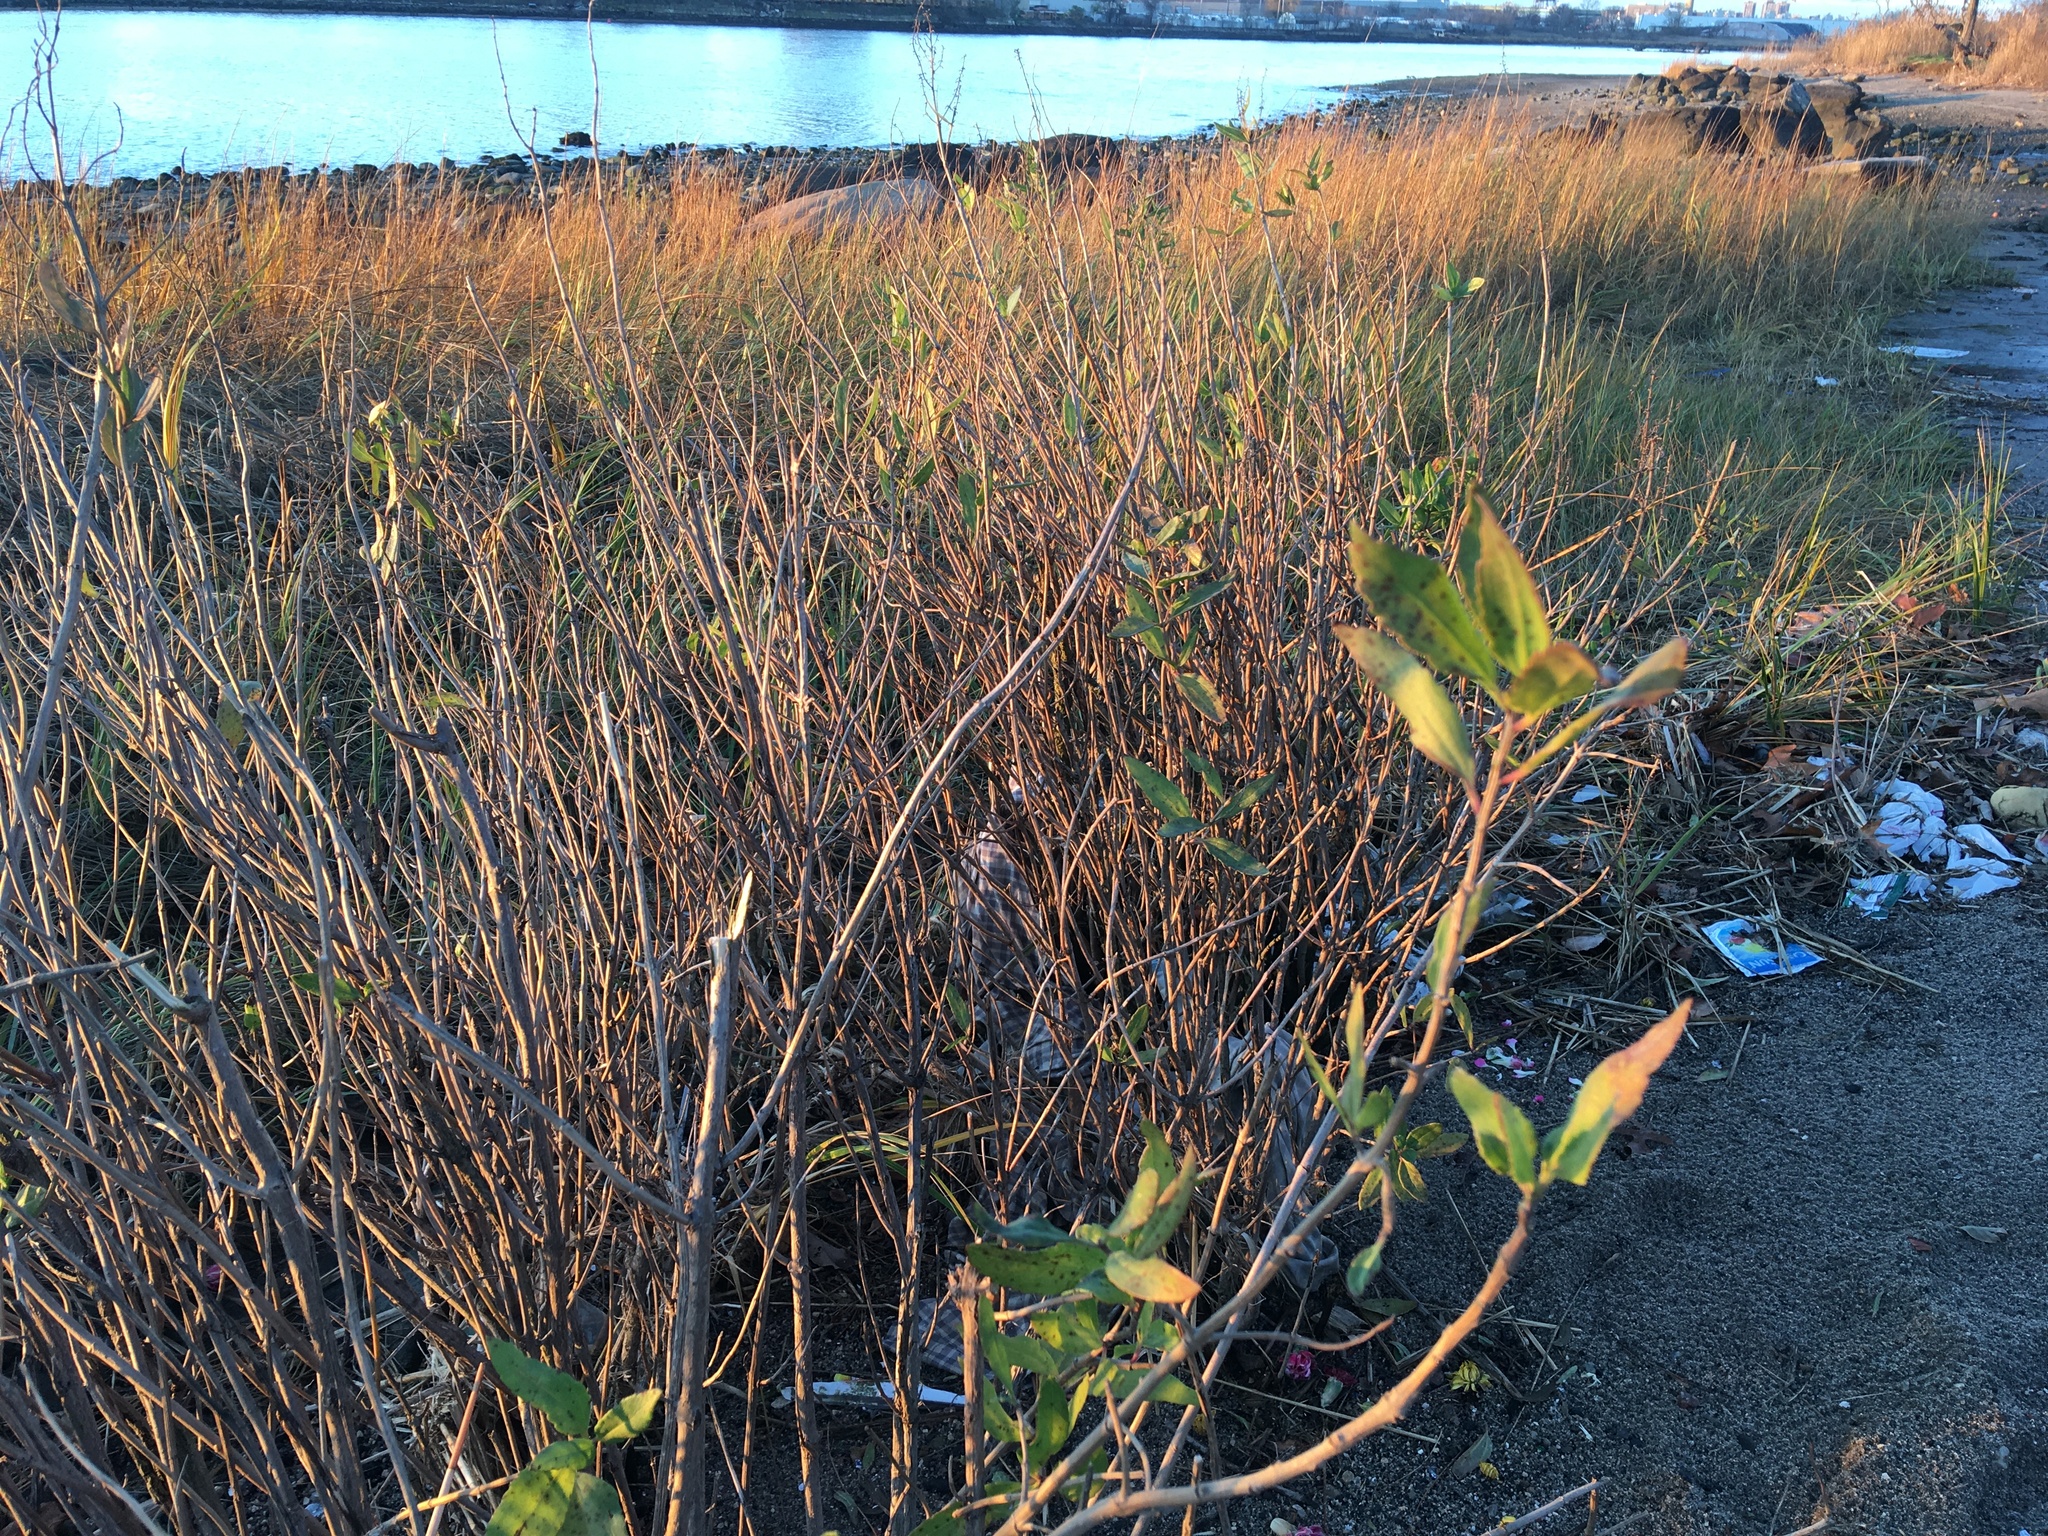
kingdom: Plantae
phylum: Tracheophyta
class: Magnoliopsida
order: Asterales
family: Asteraceae
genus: Iva
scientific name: Iva frutescens
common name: Big-leaved marsh-elder
